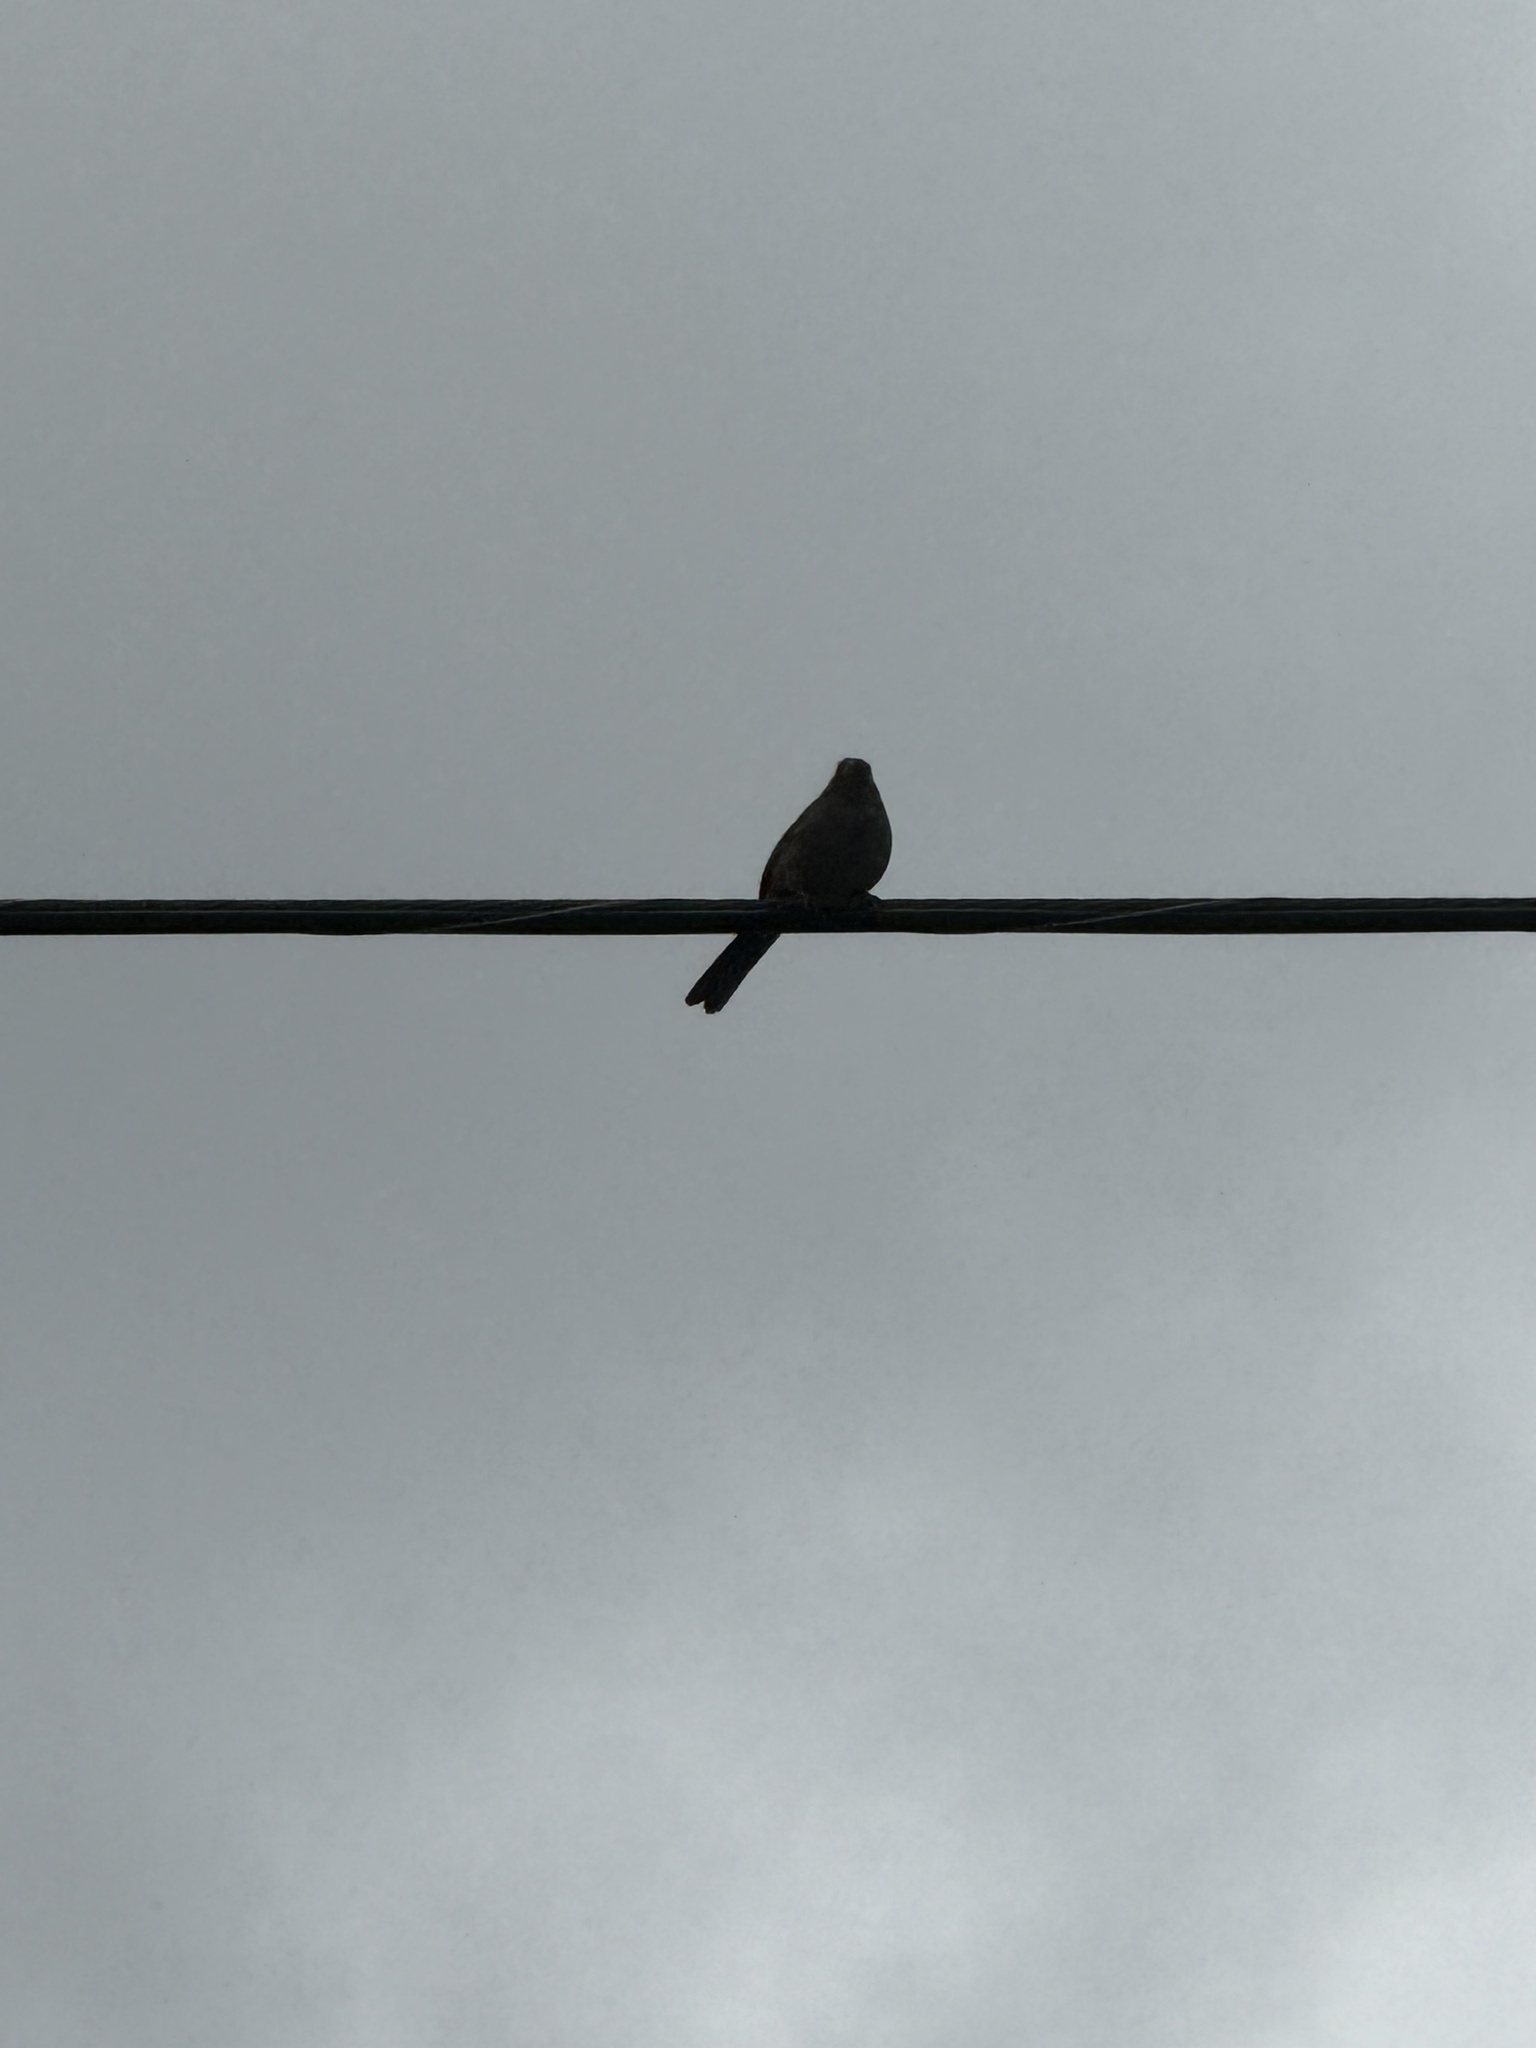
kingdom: Animalia
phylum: Chordata
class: Aves
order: Passeriformes
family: Passerellidae
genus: Melozone
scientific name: Melozone crissalis
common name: California towhee
